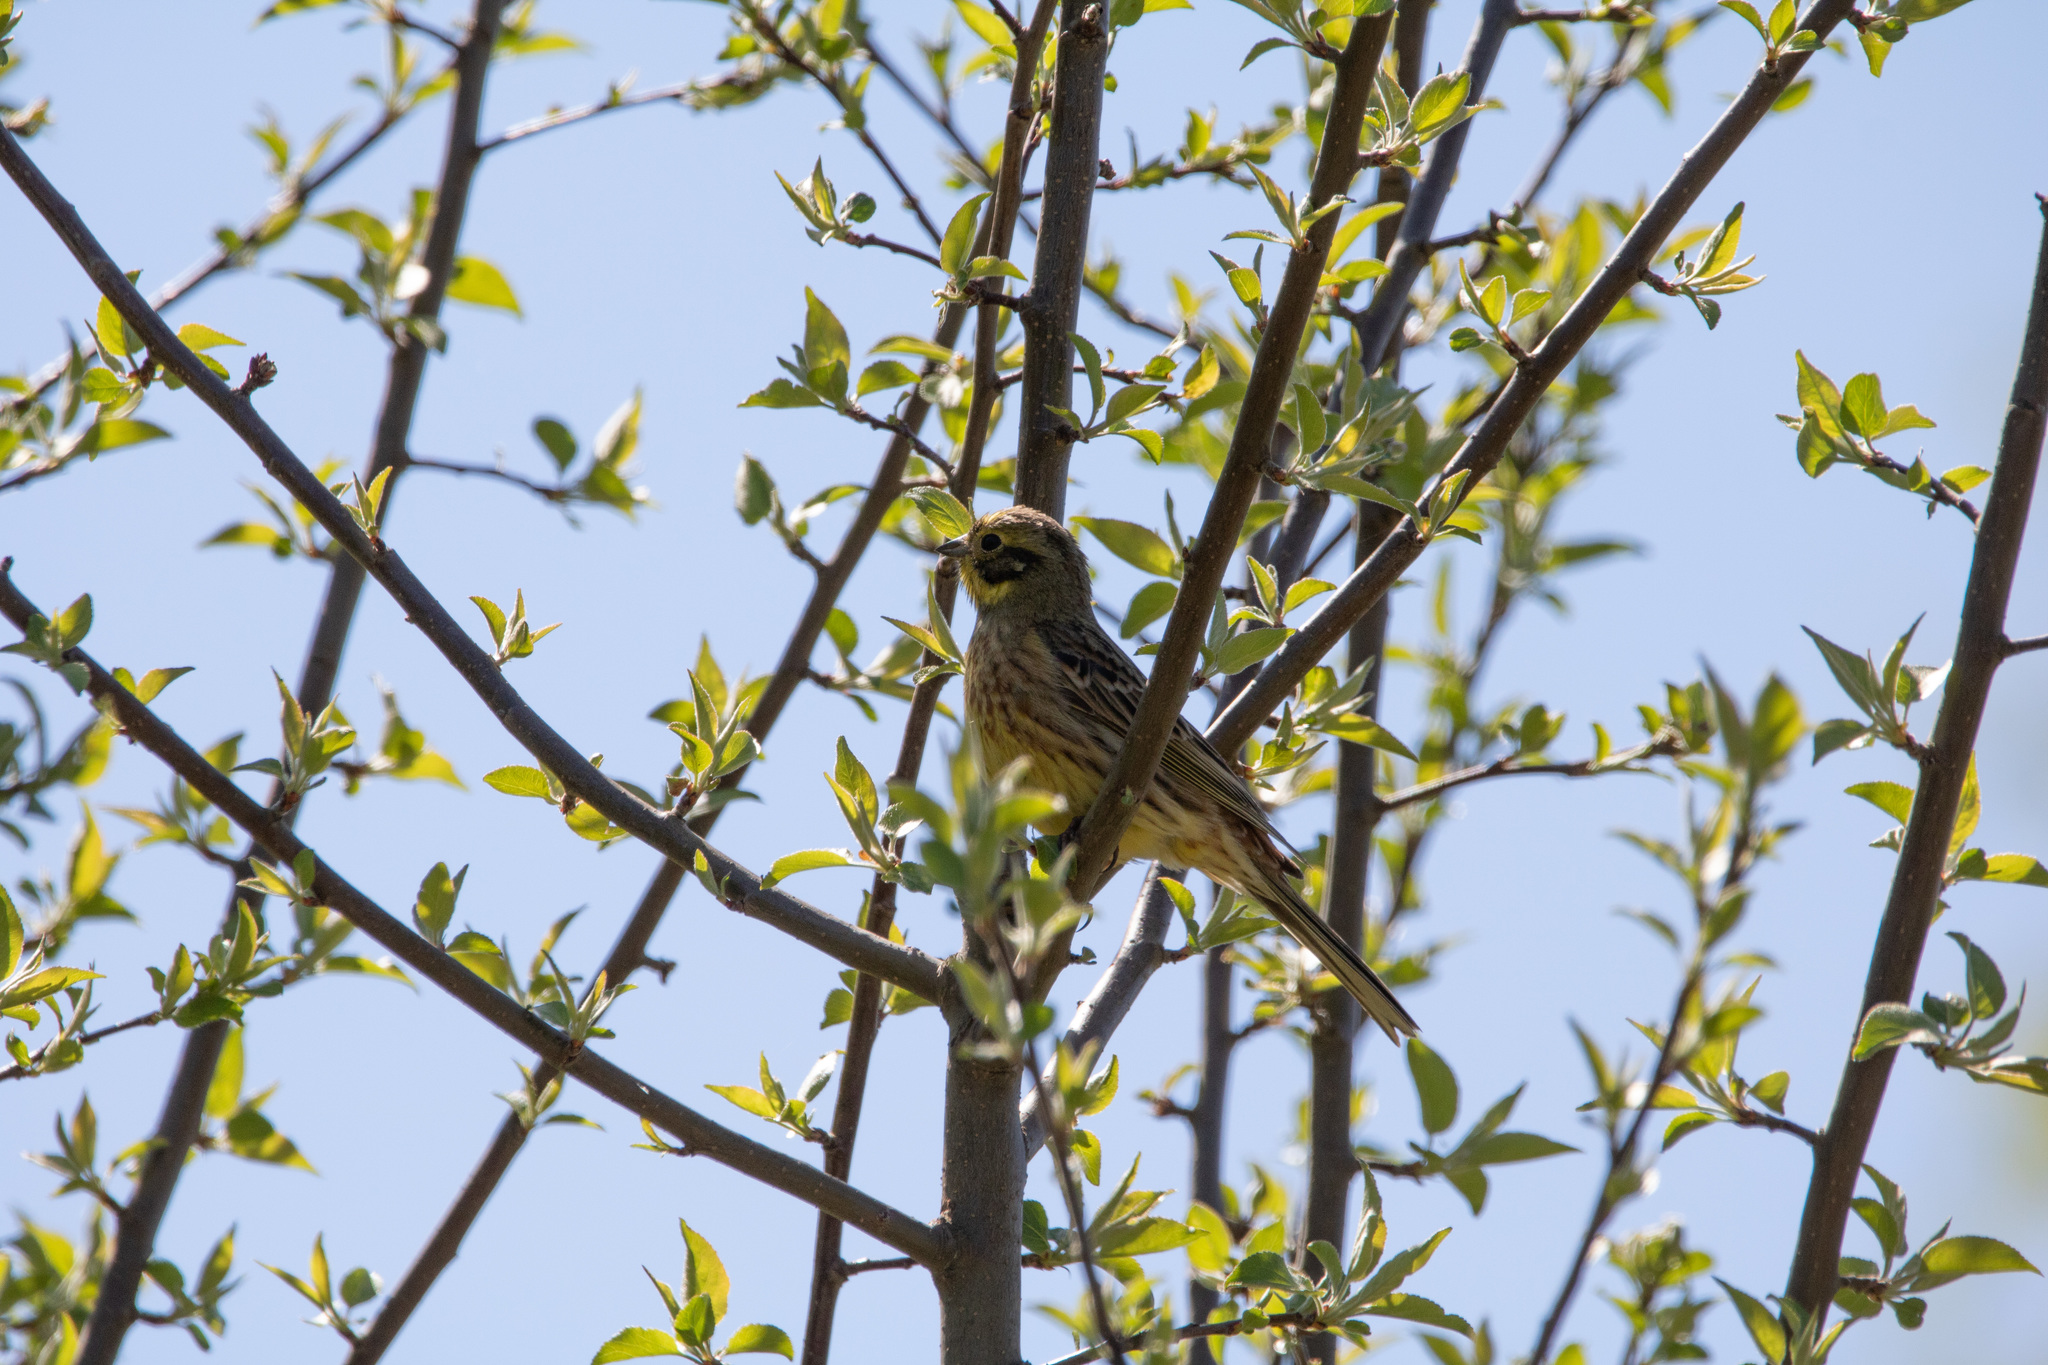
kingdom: Animalia
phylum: Chordata
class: Aves
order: Passeriformes
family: Emberizidae
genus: Emberiza
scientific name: Emberiza citrinella
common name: Yellowhammer
